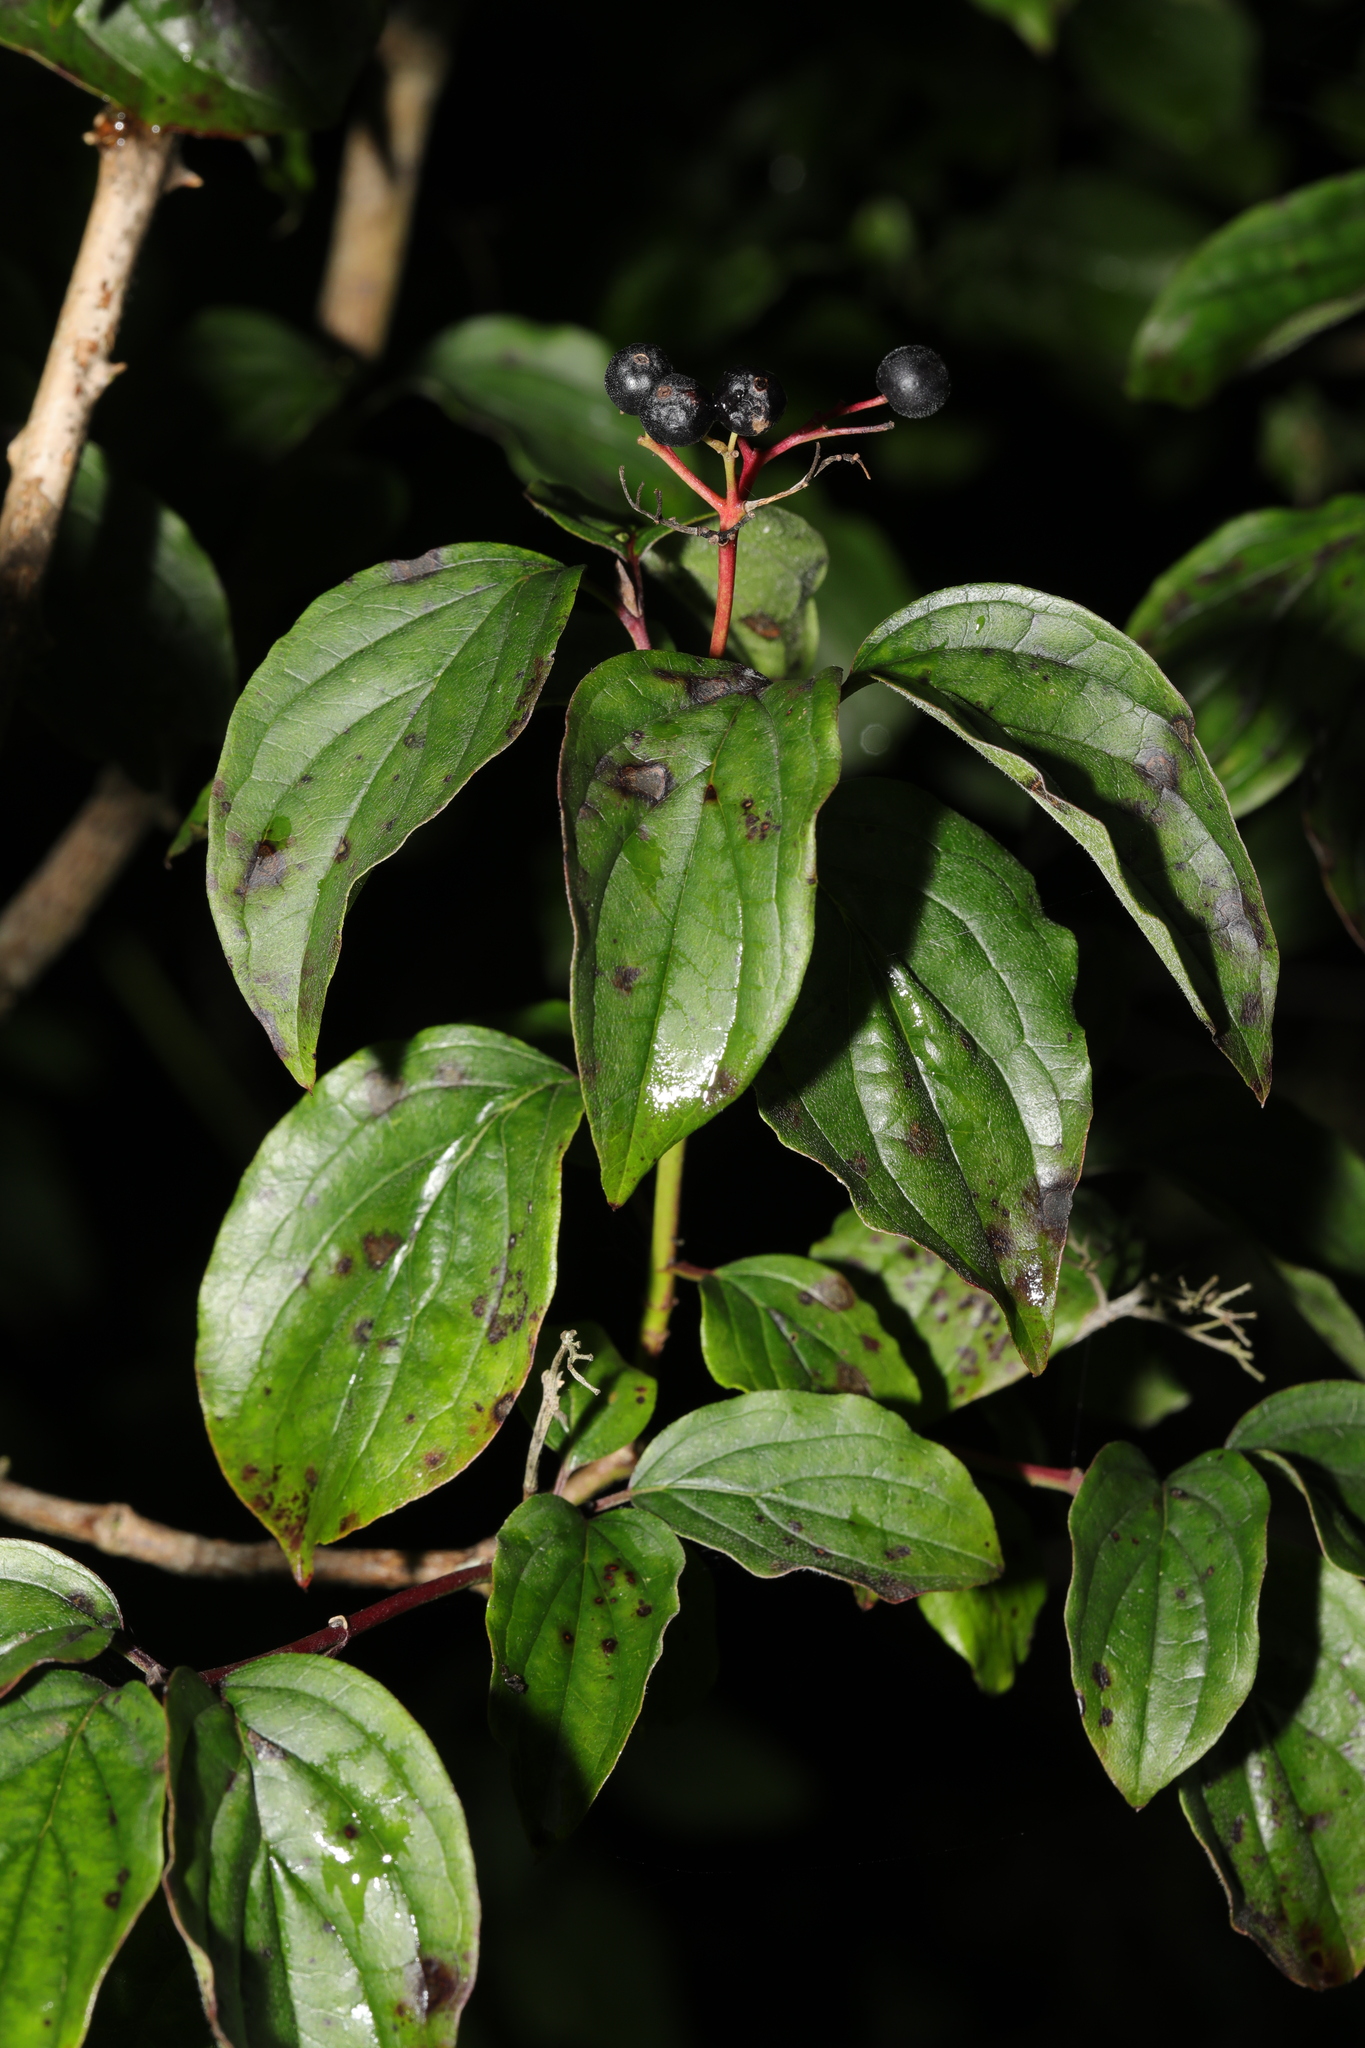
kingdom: Plantae
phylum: Tracheophyta
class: Magnoliopsida
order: Cornales
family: Cornaceae
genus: Cornus
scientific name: Cornus sanguinea
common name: Dogwood
